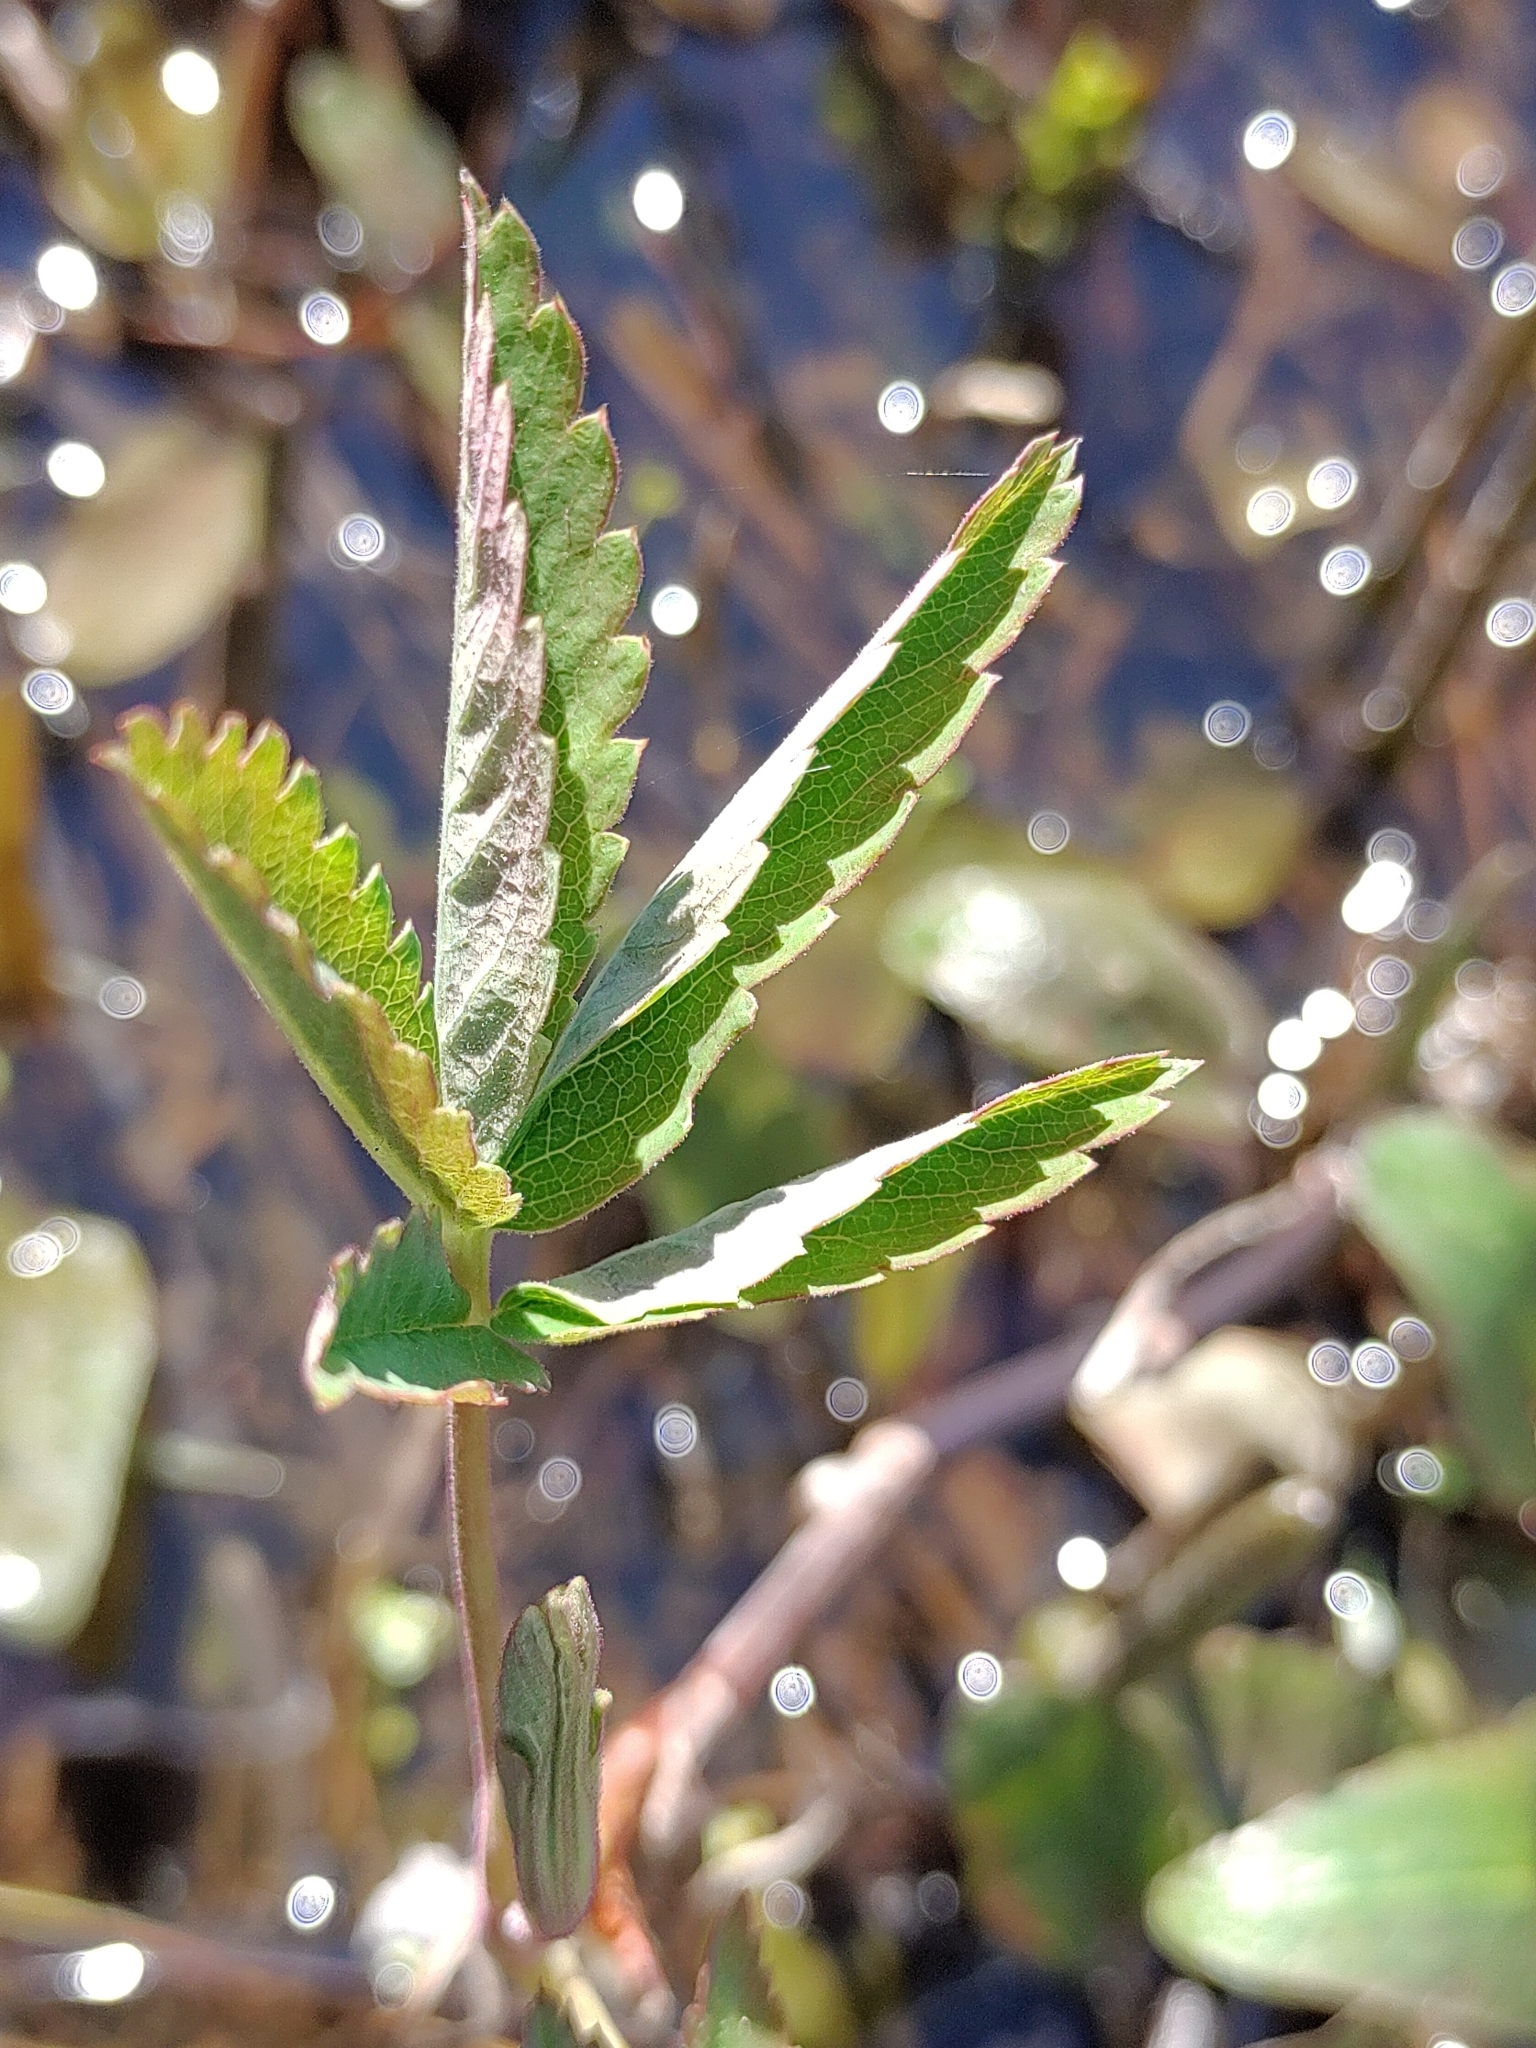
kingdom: Plantae
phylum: Tracheophyta
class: Magnoliopsida
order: Rosales
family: Rosaceae
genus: Comarum
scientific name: Comarum palustre
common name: Marsh cinquefoil
